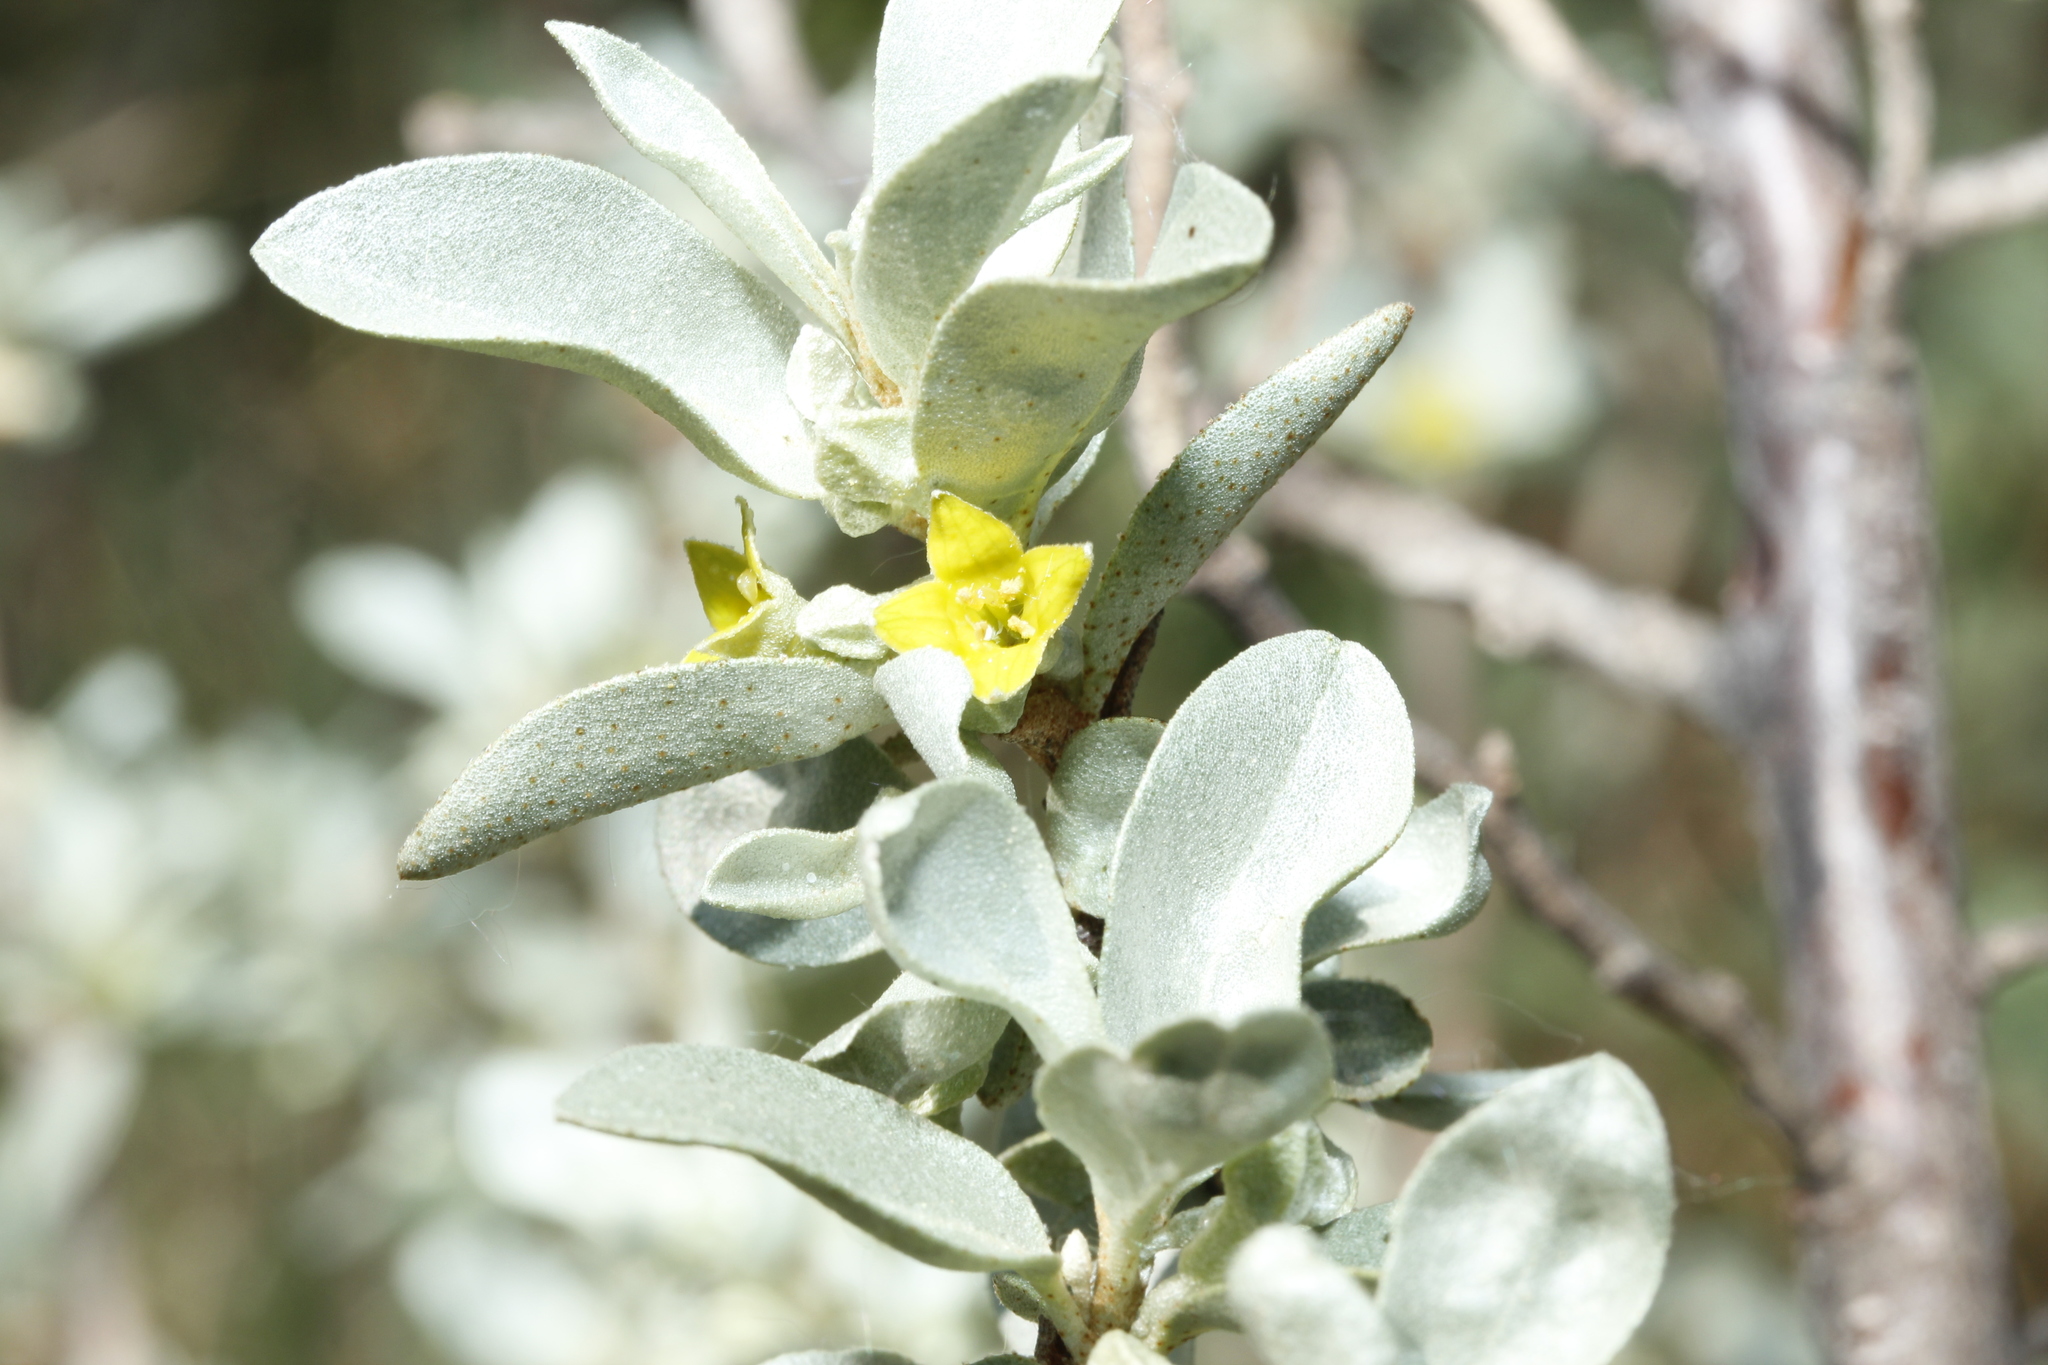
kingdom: Plantae
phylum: Tracheophyta
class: Magnoliopsida
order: Rosales
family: Elaeagnaceae
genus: Elaeagnus
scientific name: Elaeagnus commutata
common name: Silverberry
